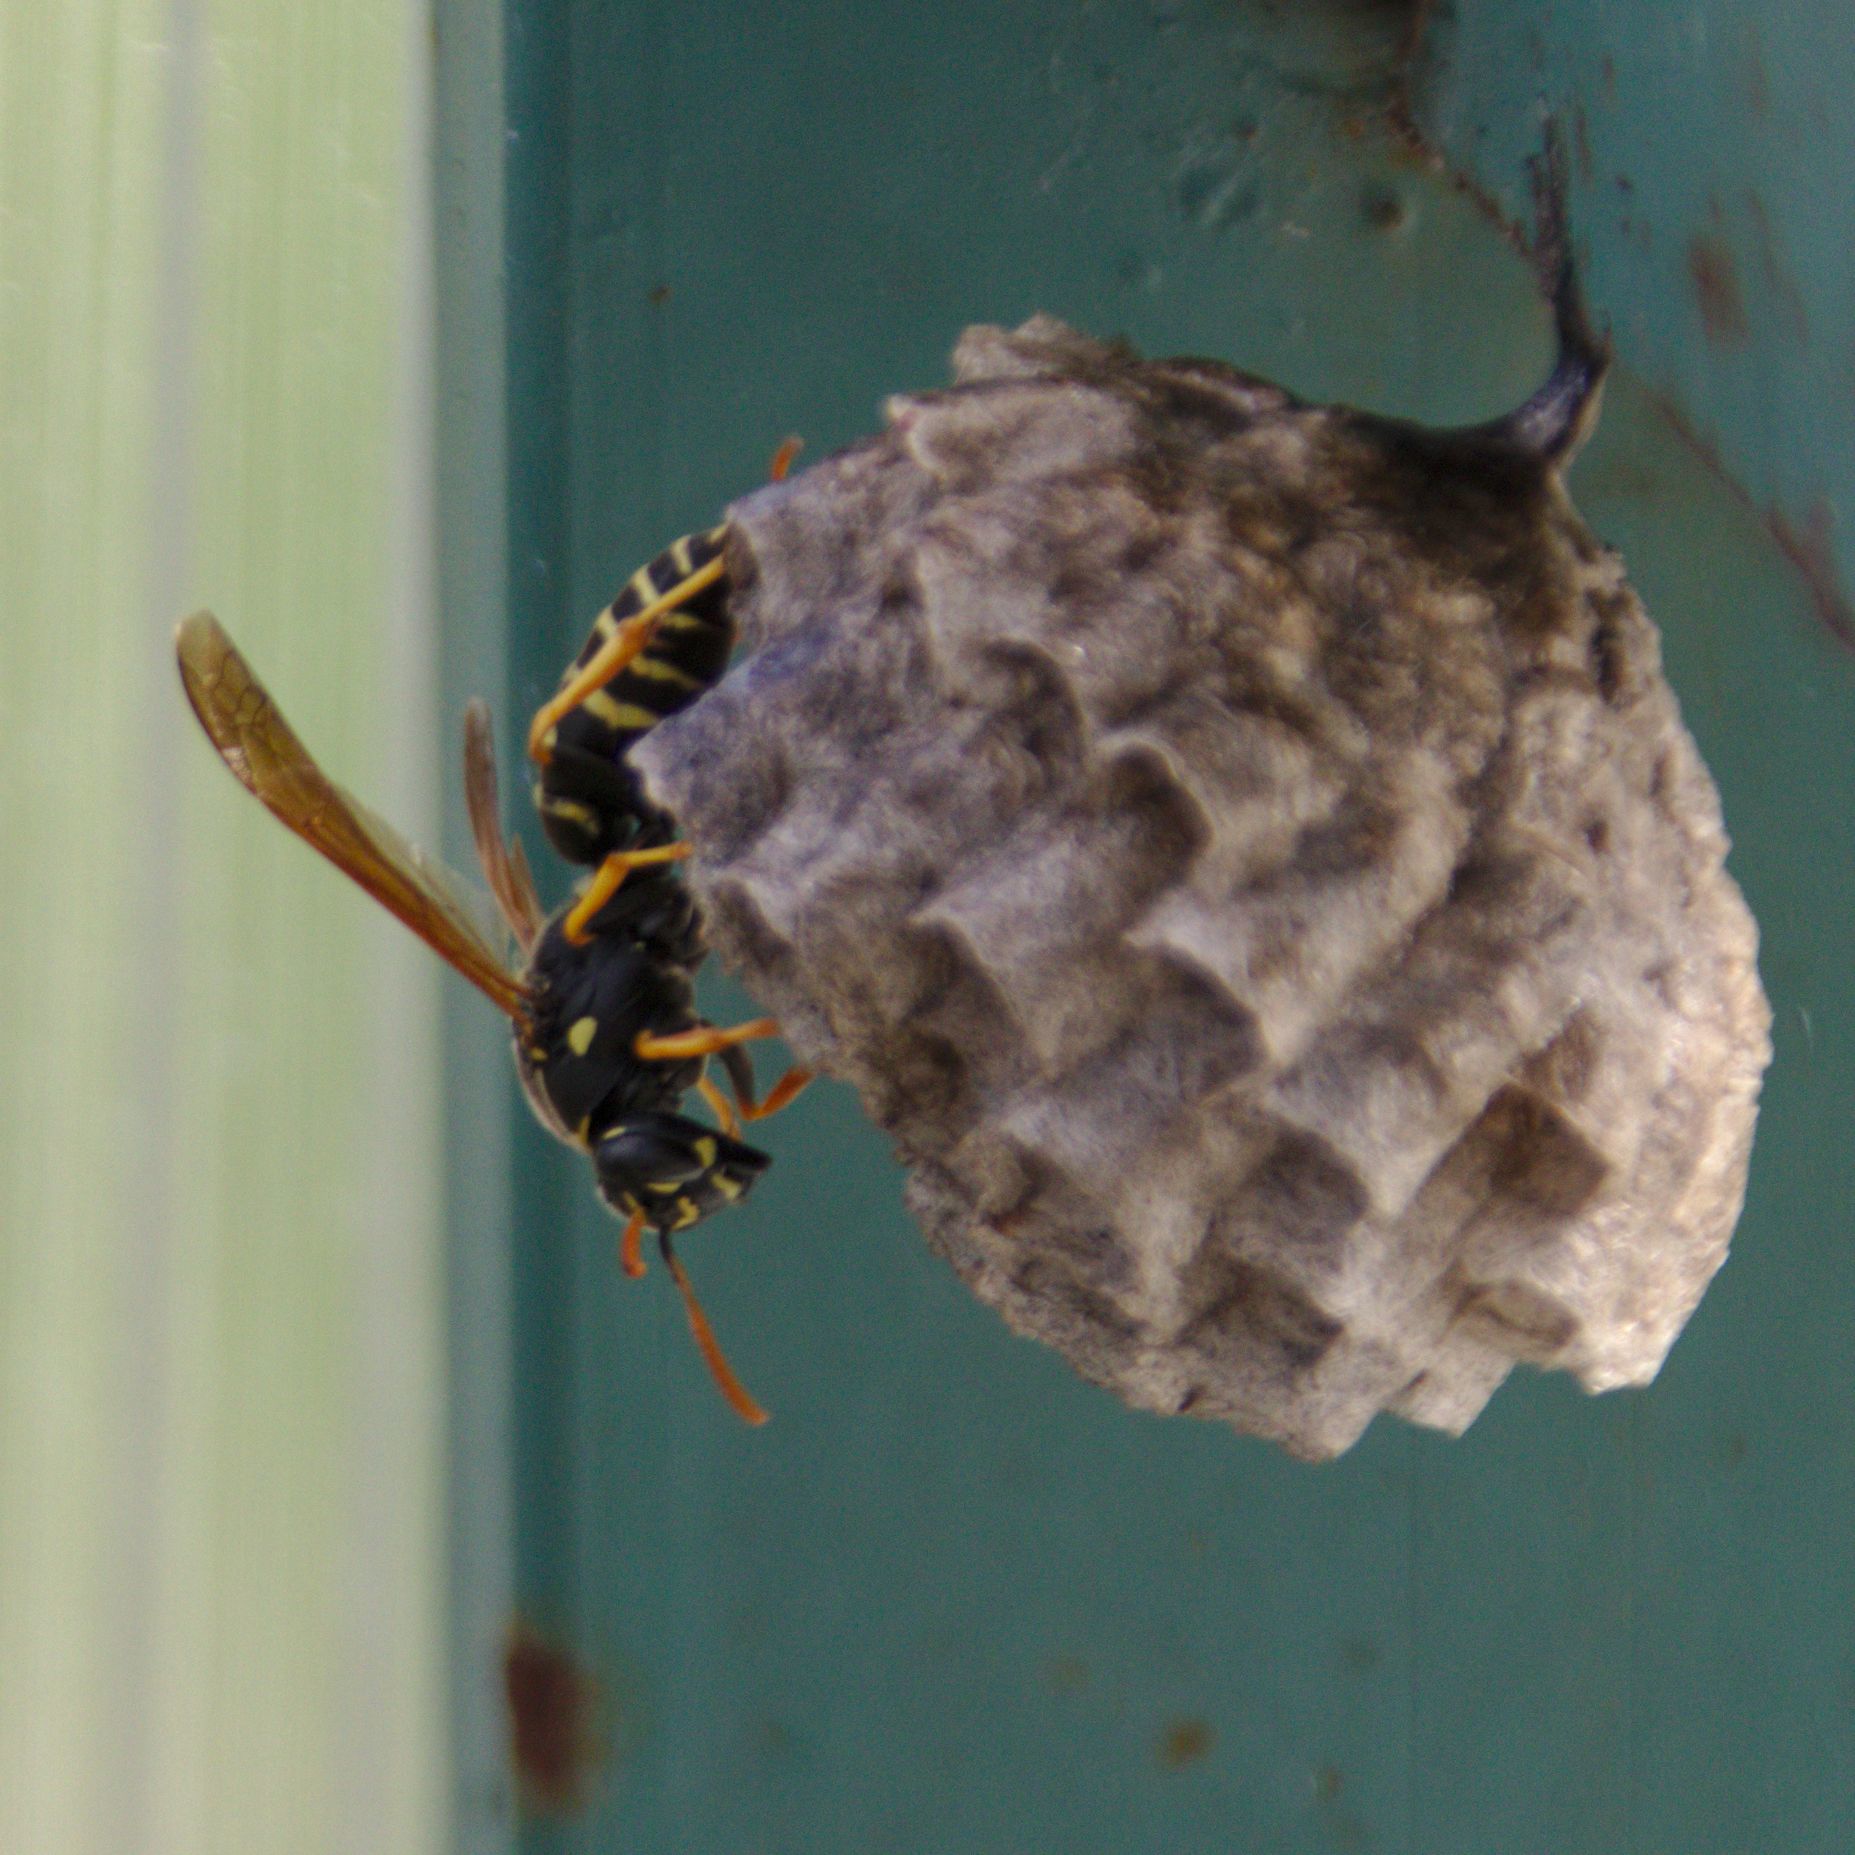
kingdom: Animalia
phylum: Arthropoda
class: Insecta
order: Hymenoptera
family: Eumenidae
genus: Polistes
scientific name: Polistes nimpha
